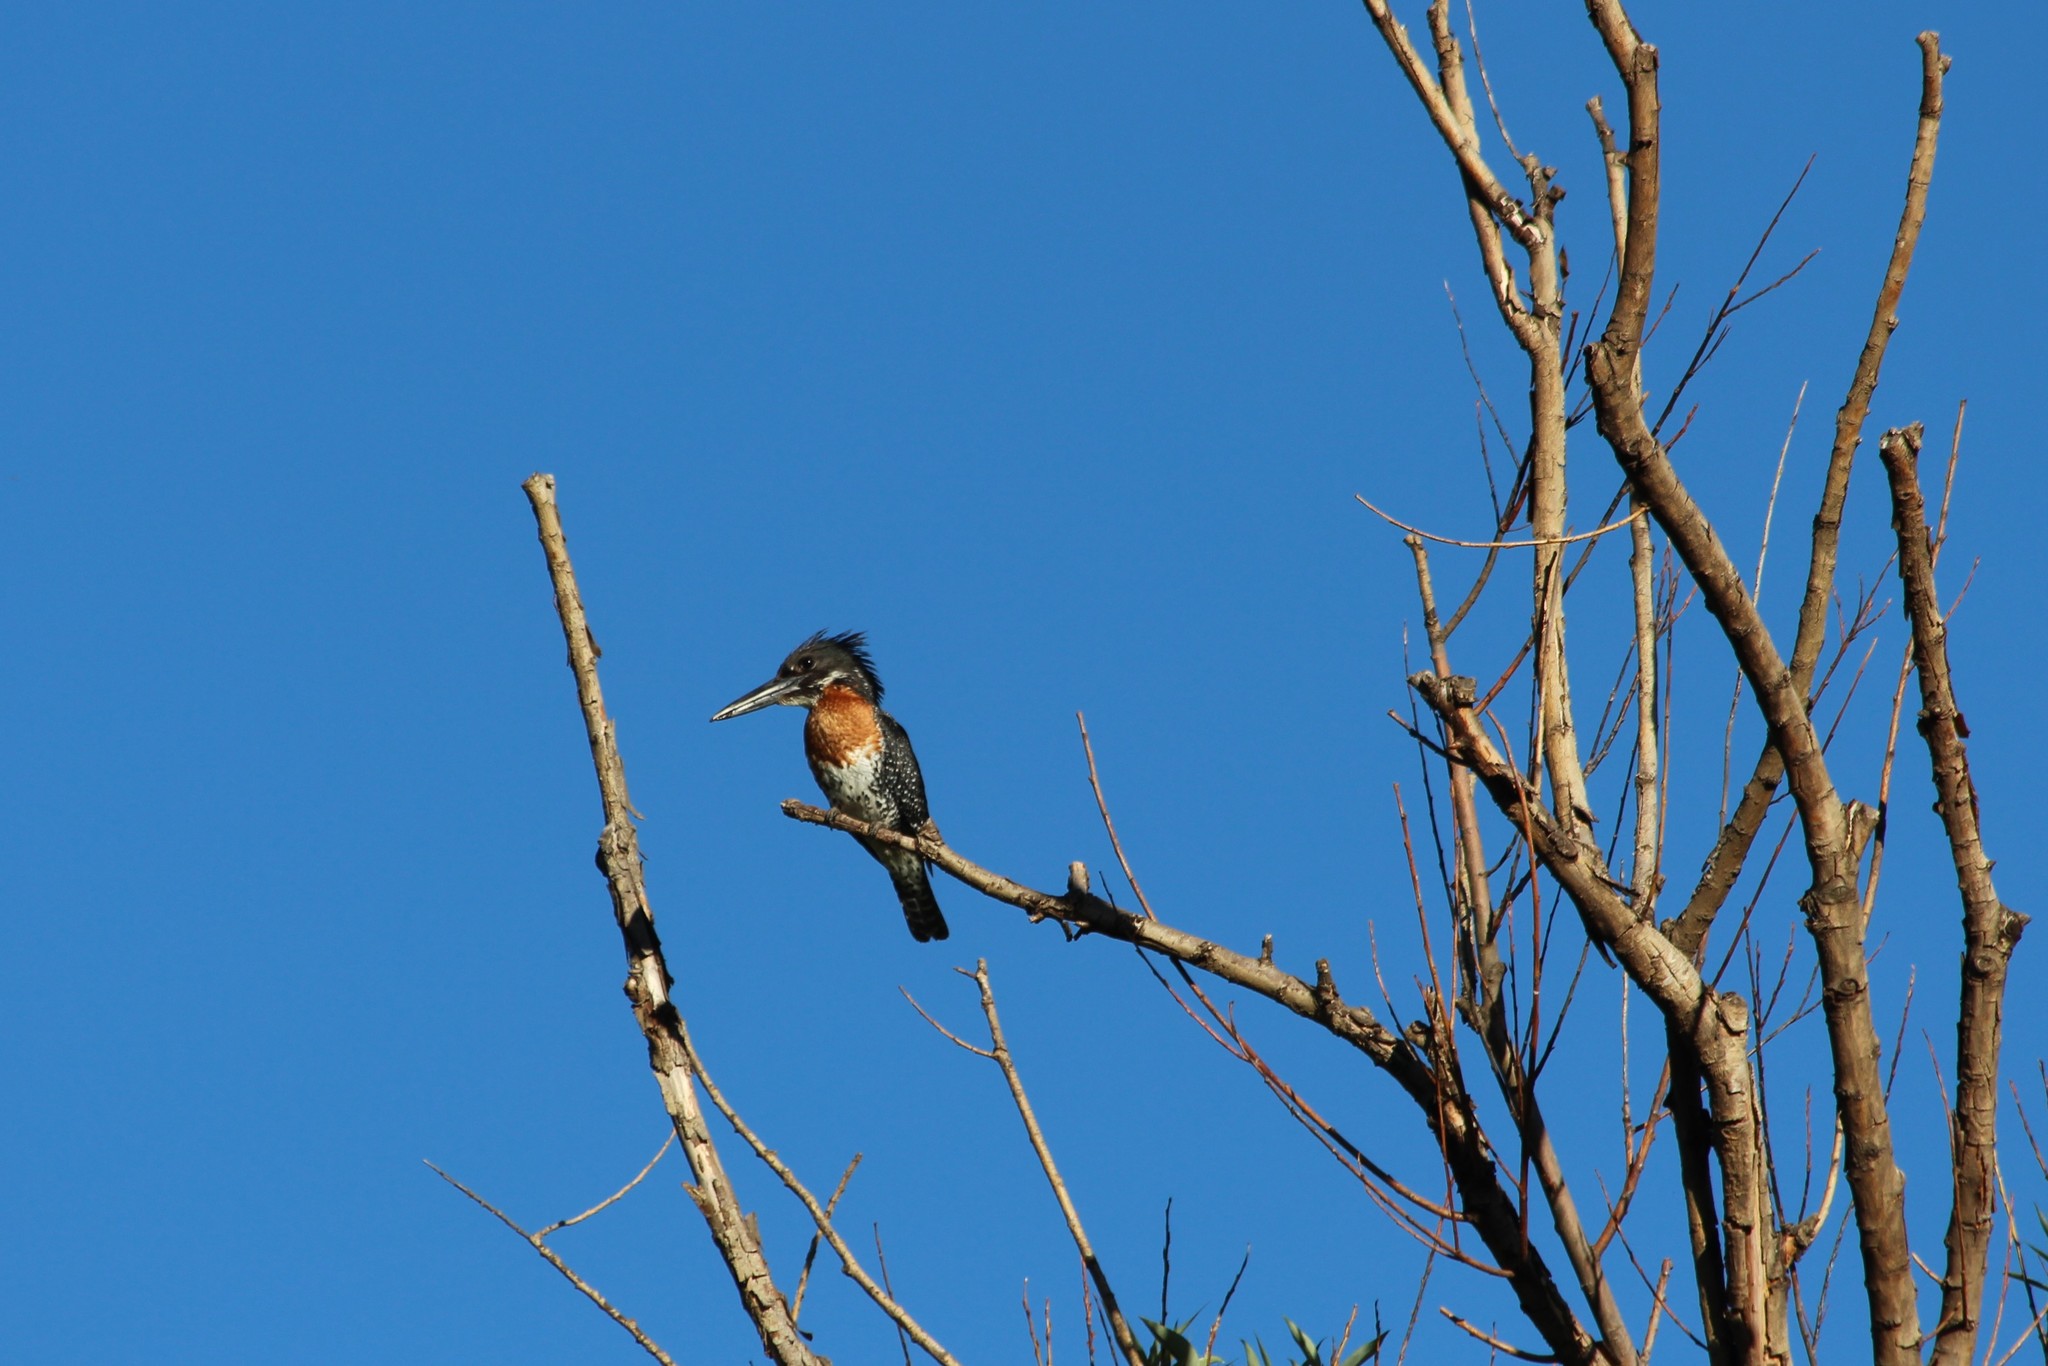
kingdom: Animalia
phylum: Chordata
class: Aves
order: Coraciiformes
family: Alcedinidae
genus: Megaceryle
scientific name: Megaceryle maxima
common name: Giant kingfisher
